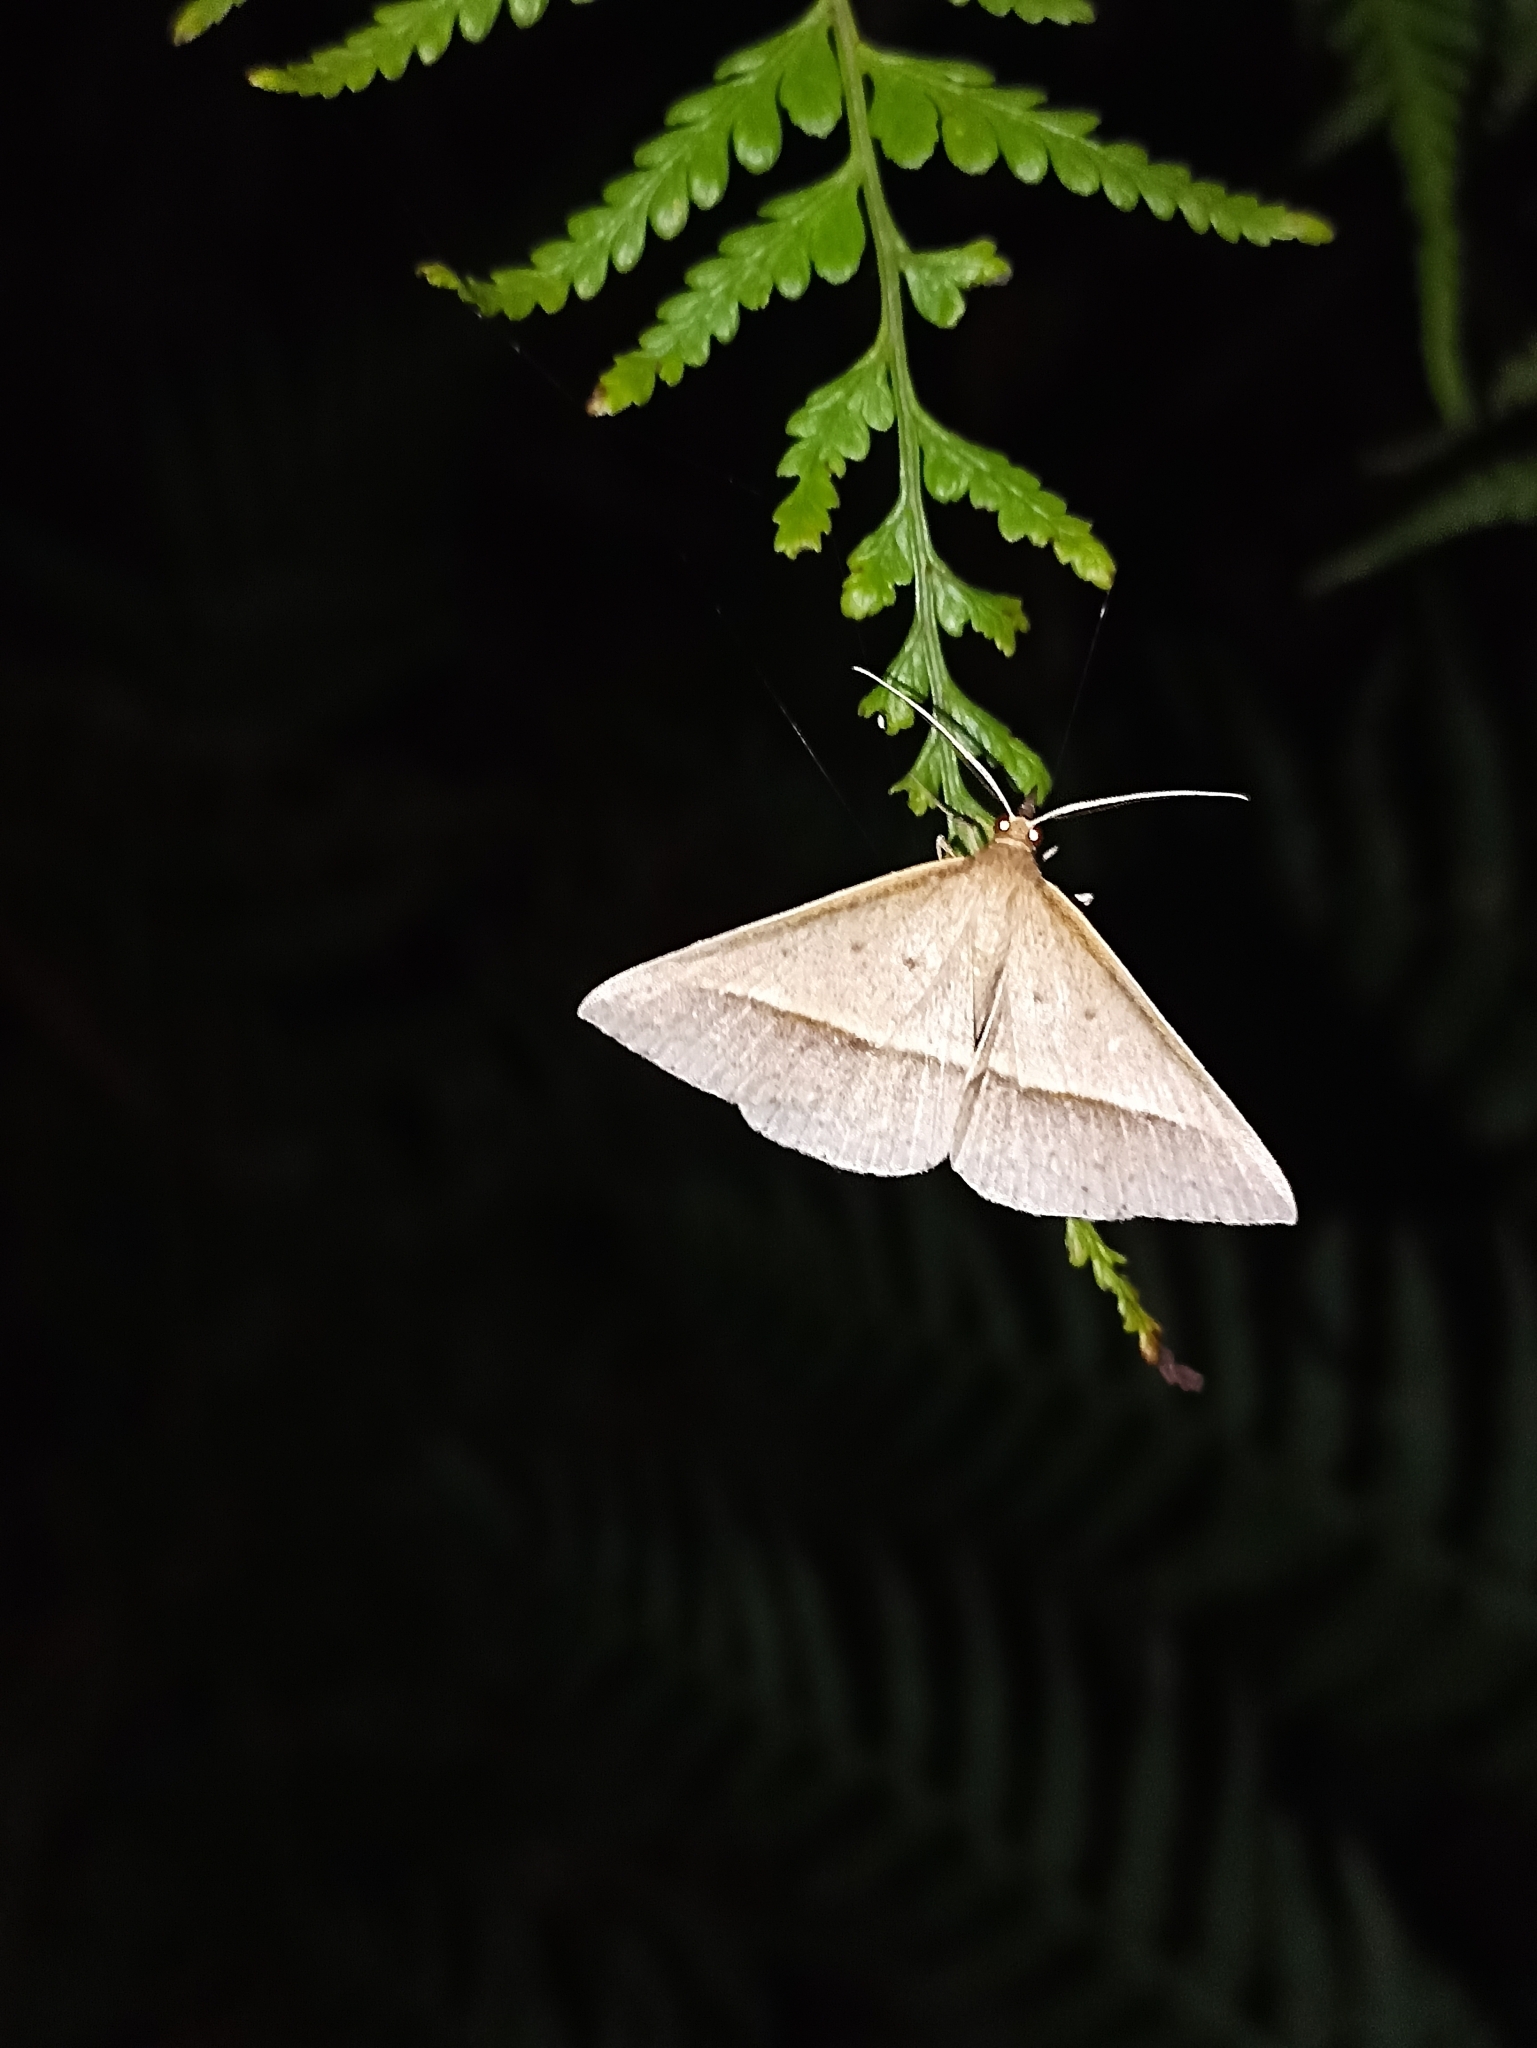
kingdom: Animalia
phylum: Arthropoda
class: Insecta
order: Lepidoptera
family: Geometridae
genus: Epidesmia
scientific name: Epidesmia tryxaria
